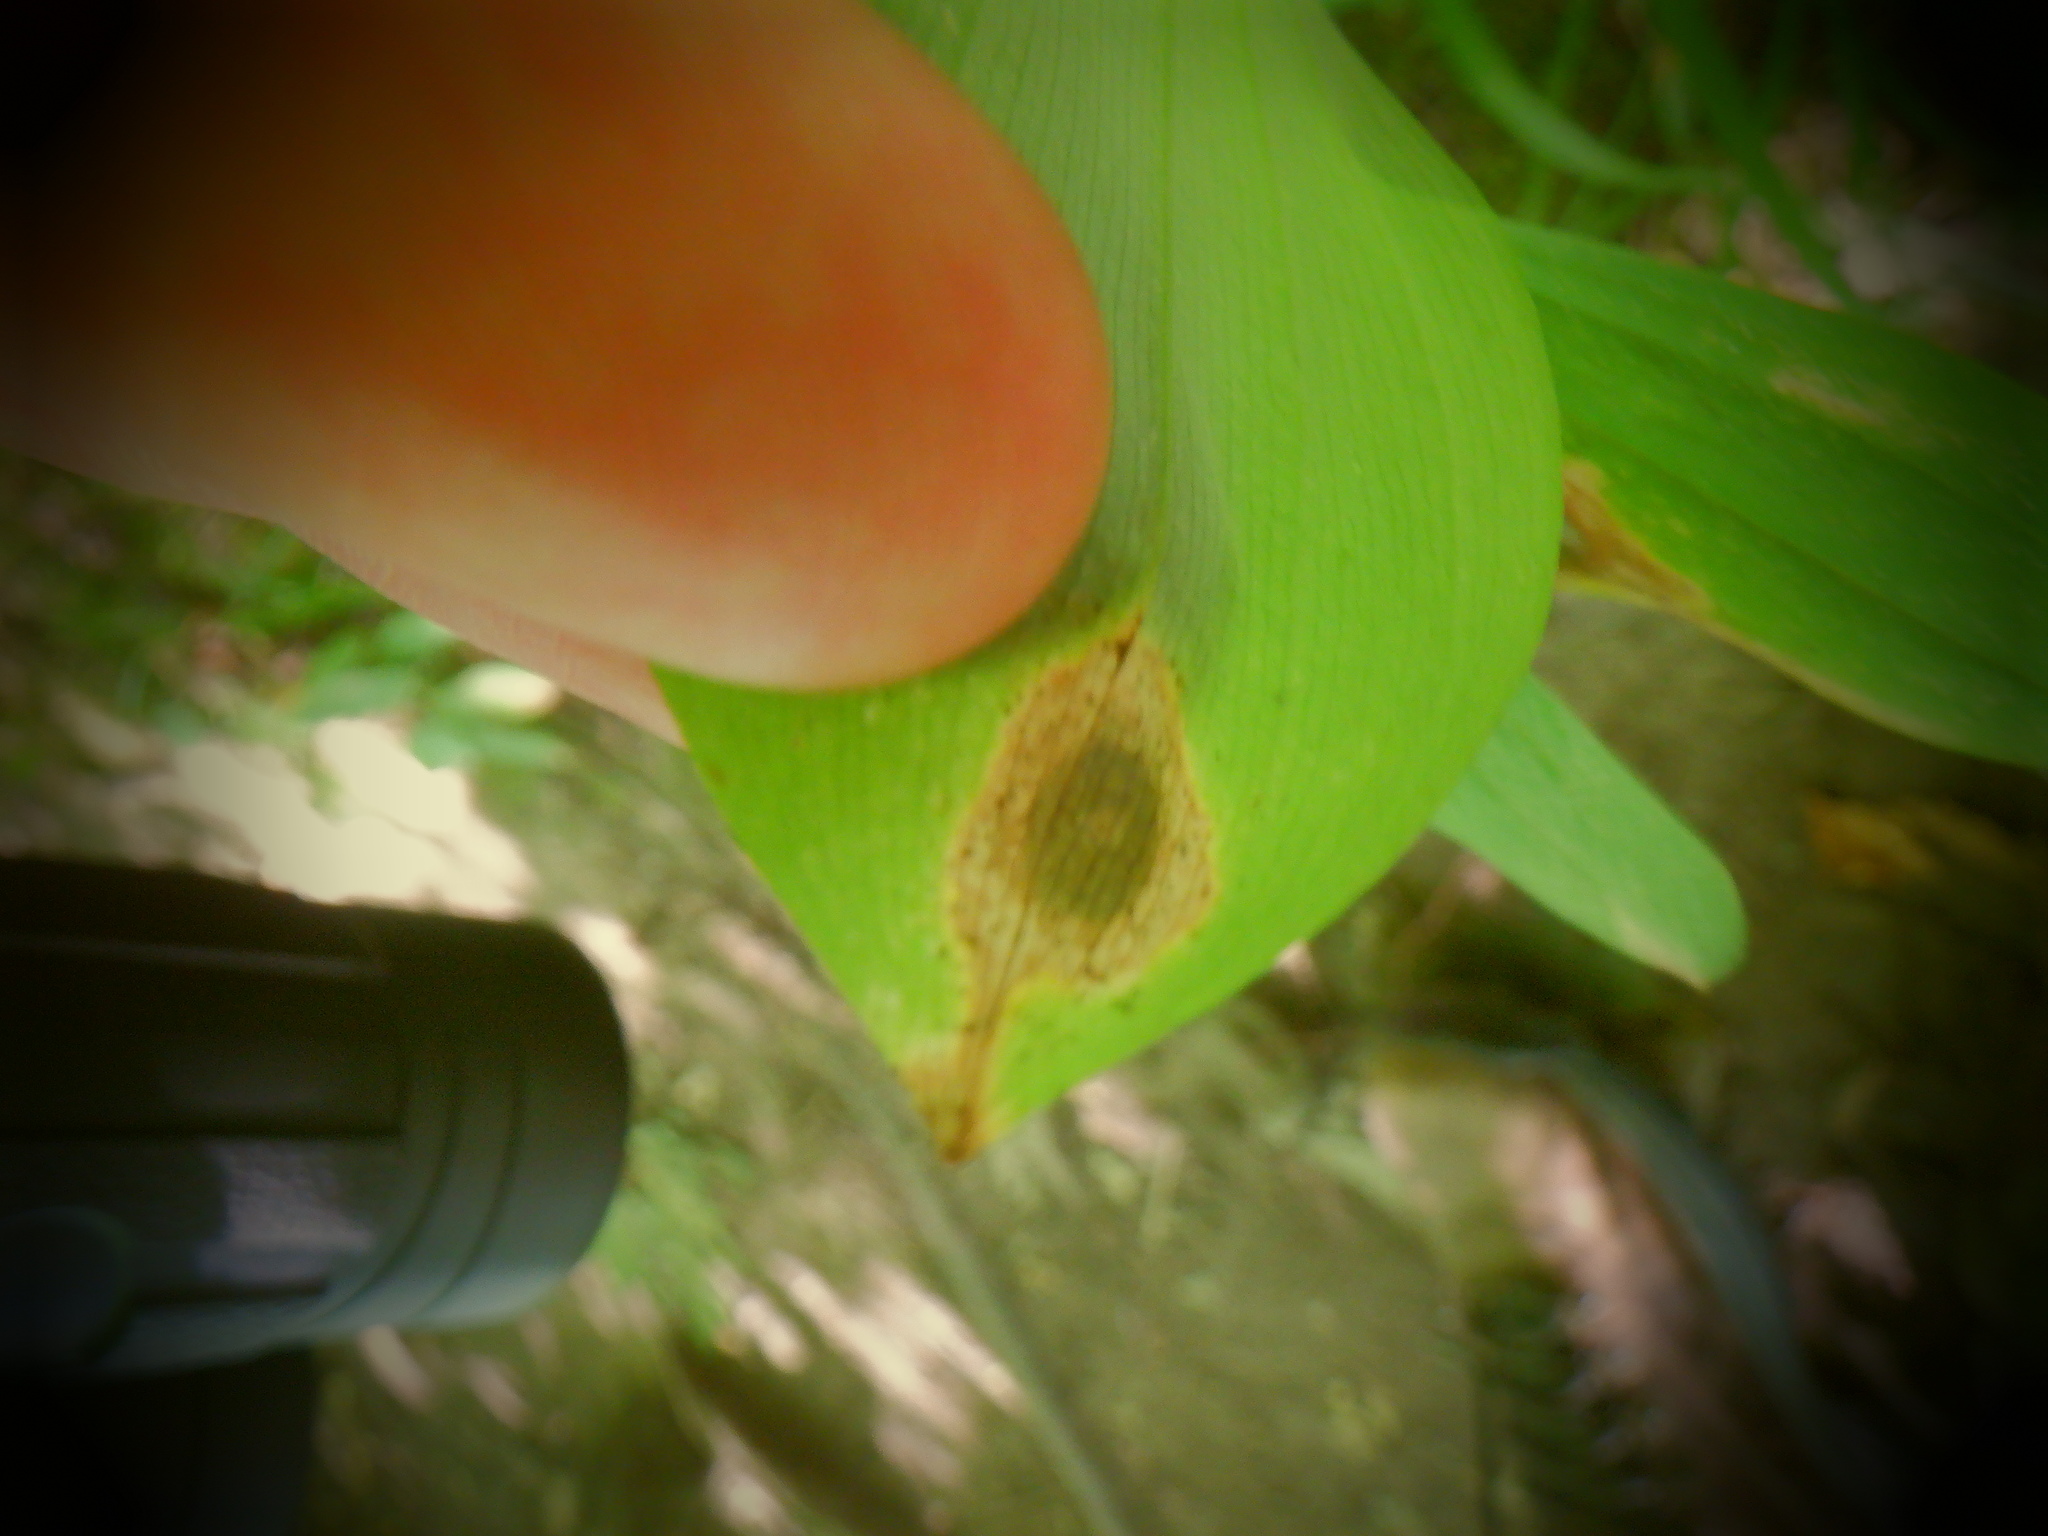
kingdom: Plantae
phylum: Tracheophyta
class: Liliopsida
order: Liliales
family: Colchicaceae
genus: Uvularia
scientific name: Uvularia grandiflora
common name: Bellwort
